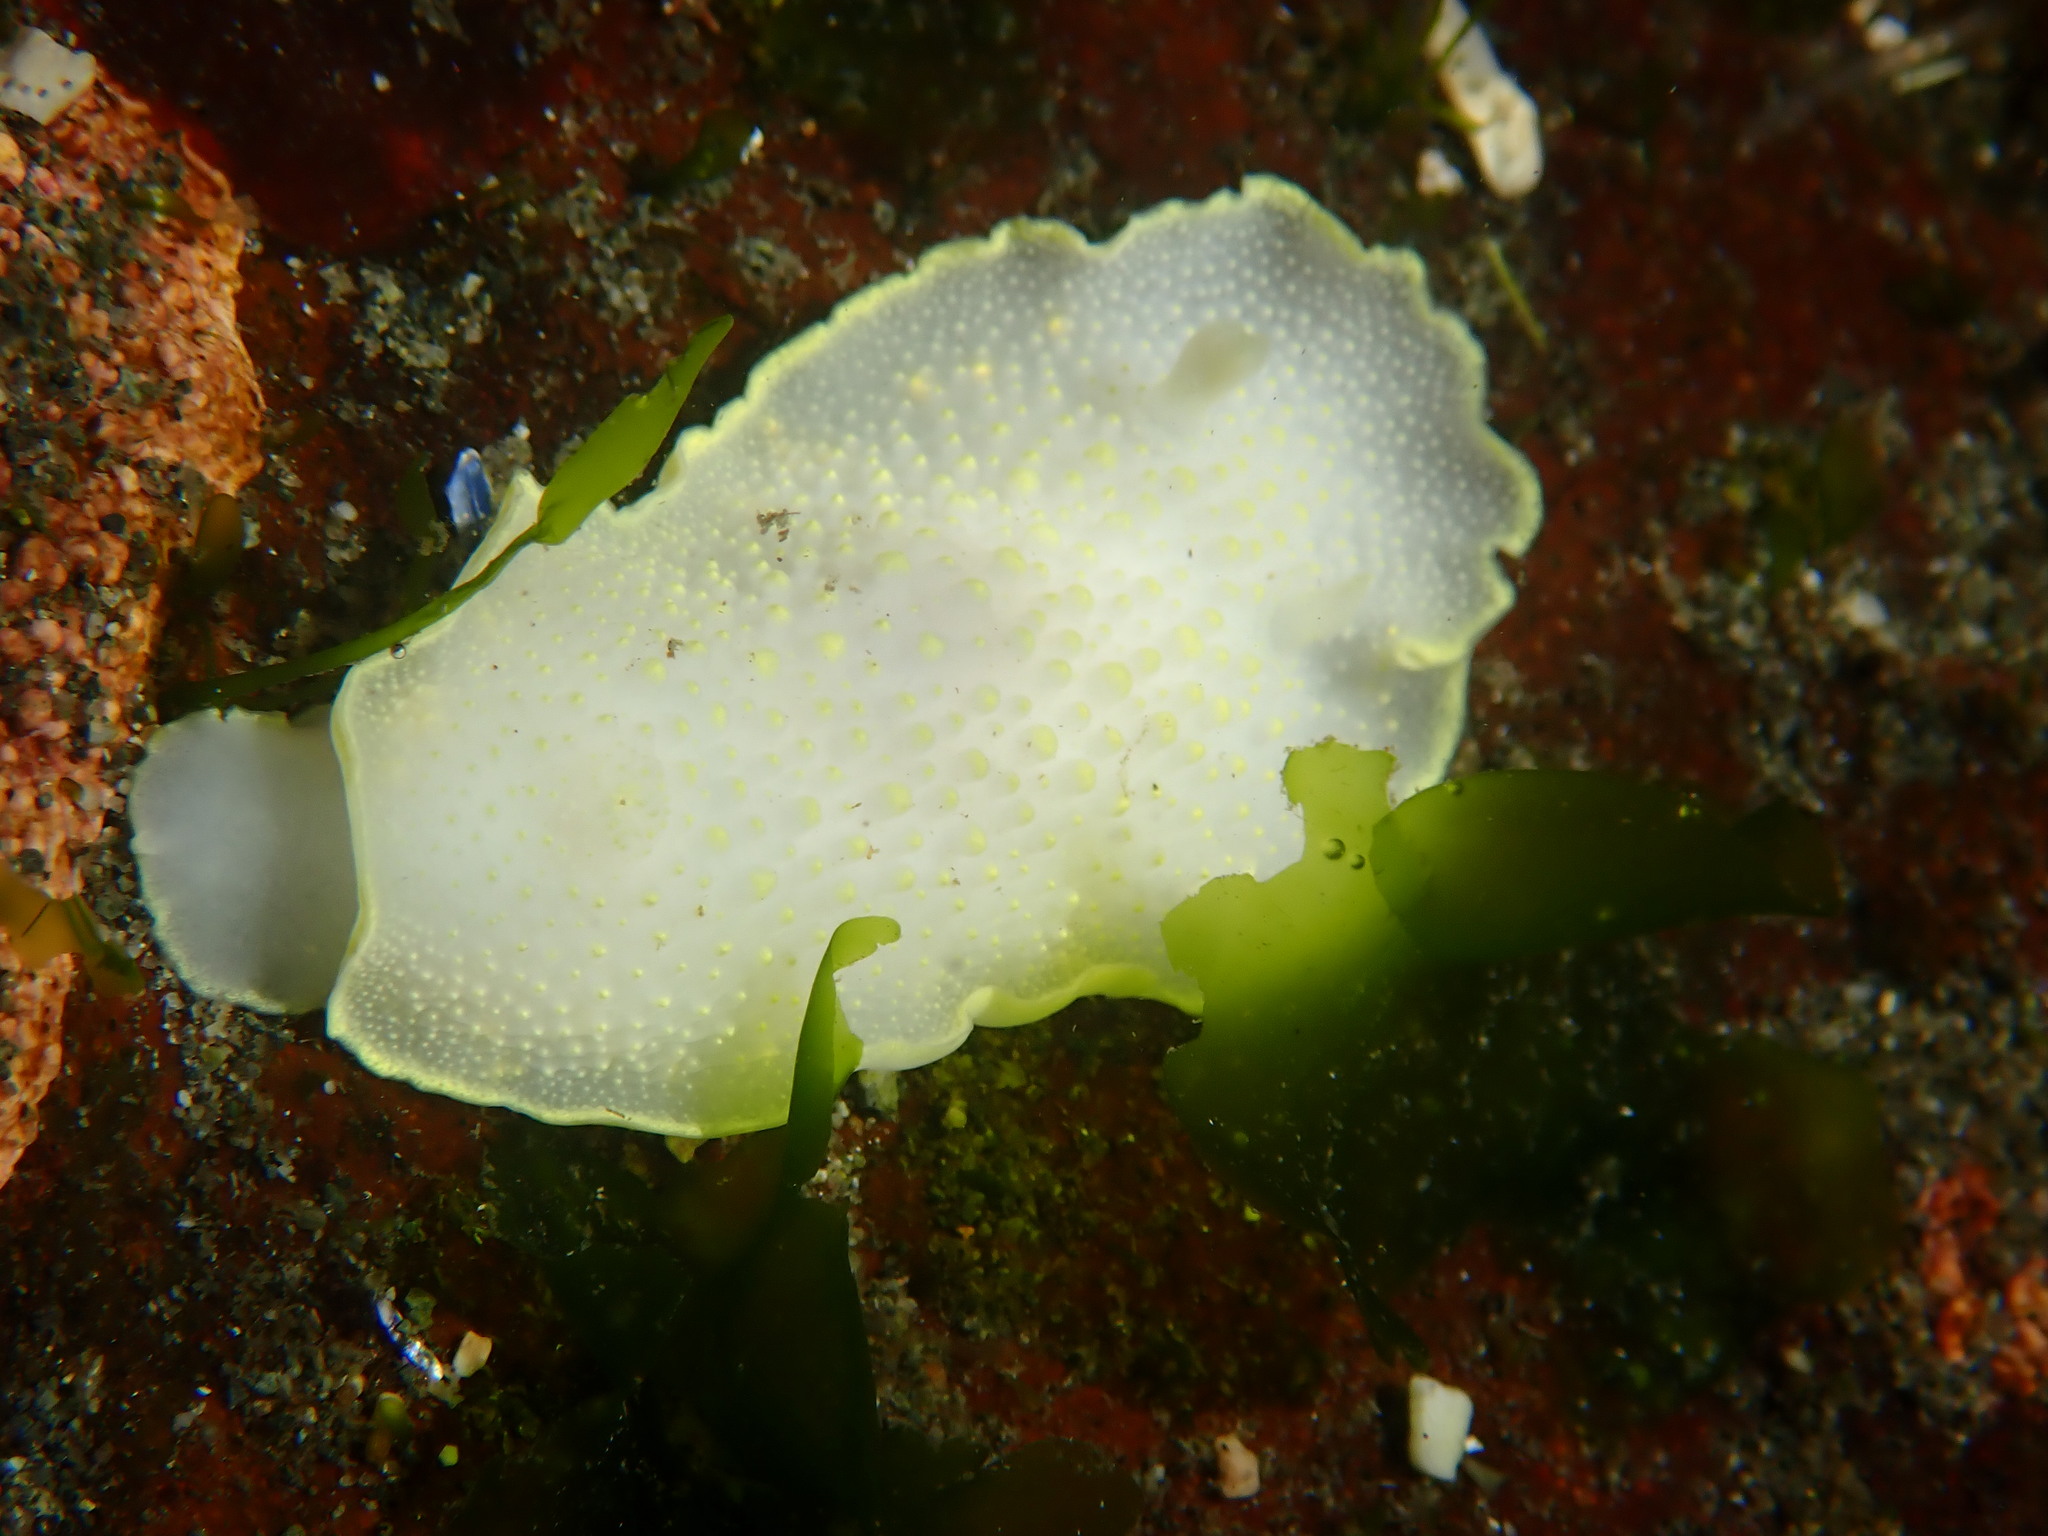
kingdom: Animalia
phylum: Mollusca
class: Gastropoda
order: Nudibranchia
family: Cadlinidae
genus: Cadlina
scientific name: Cadlina luteomarginata
